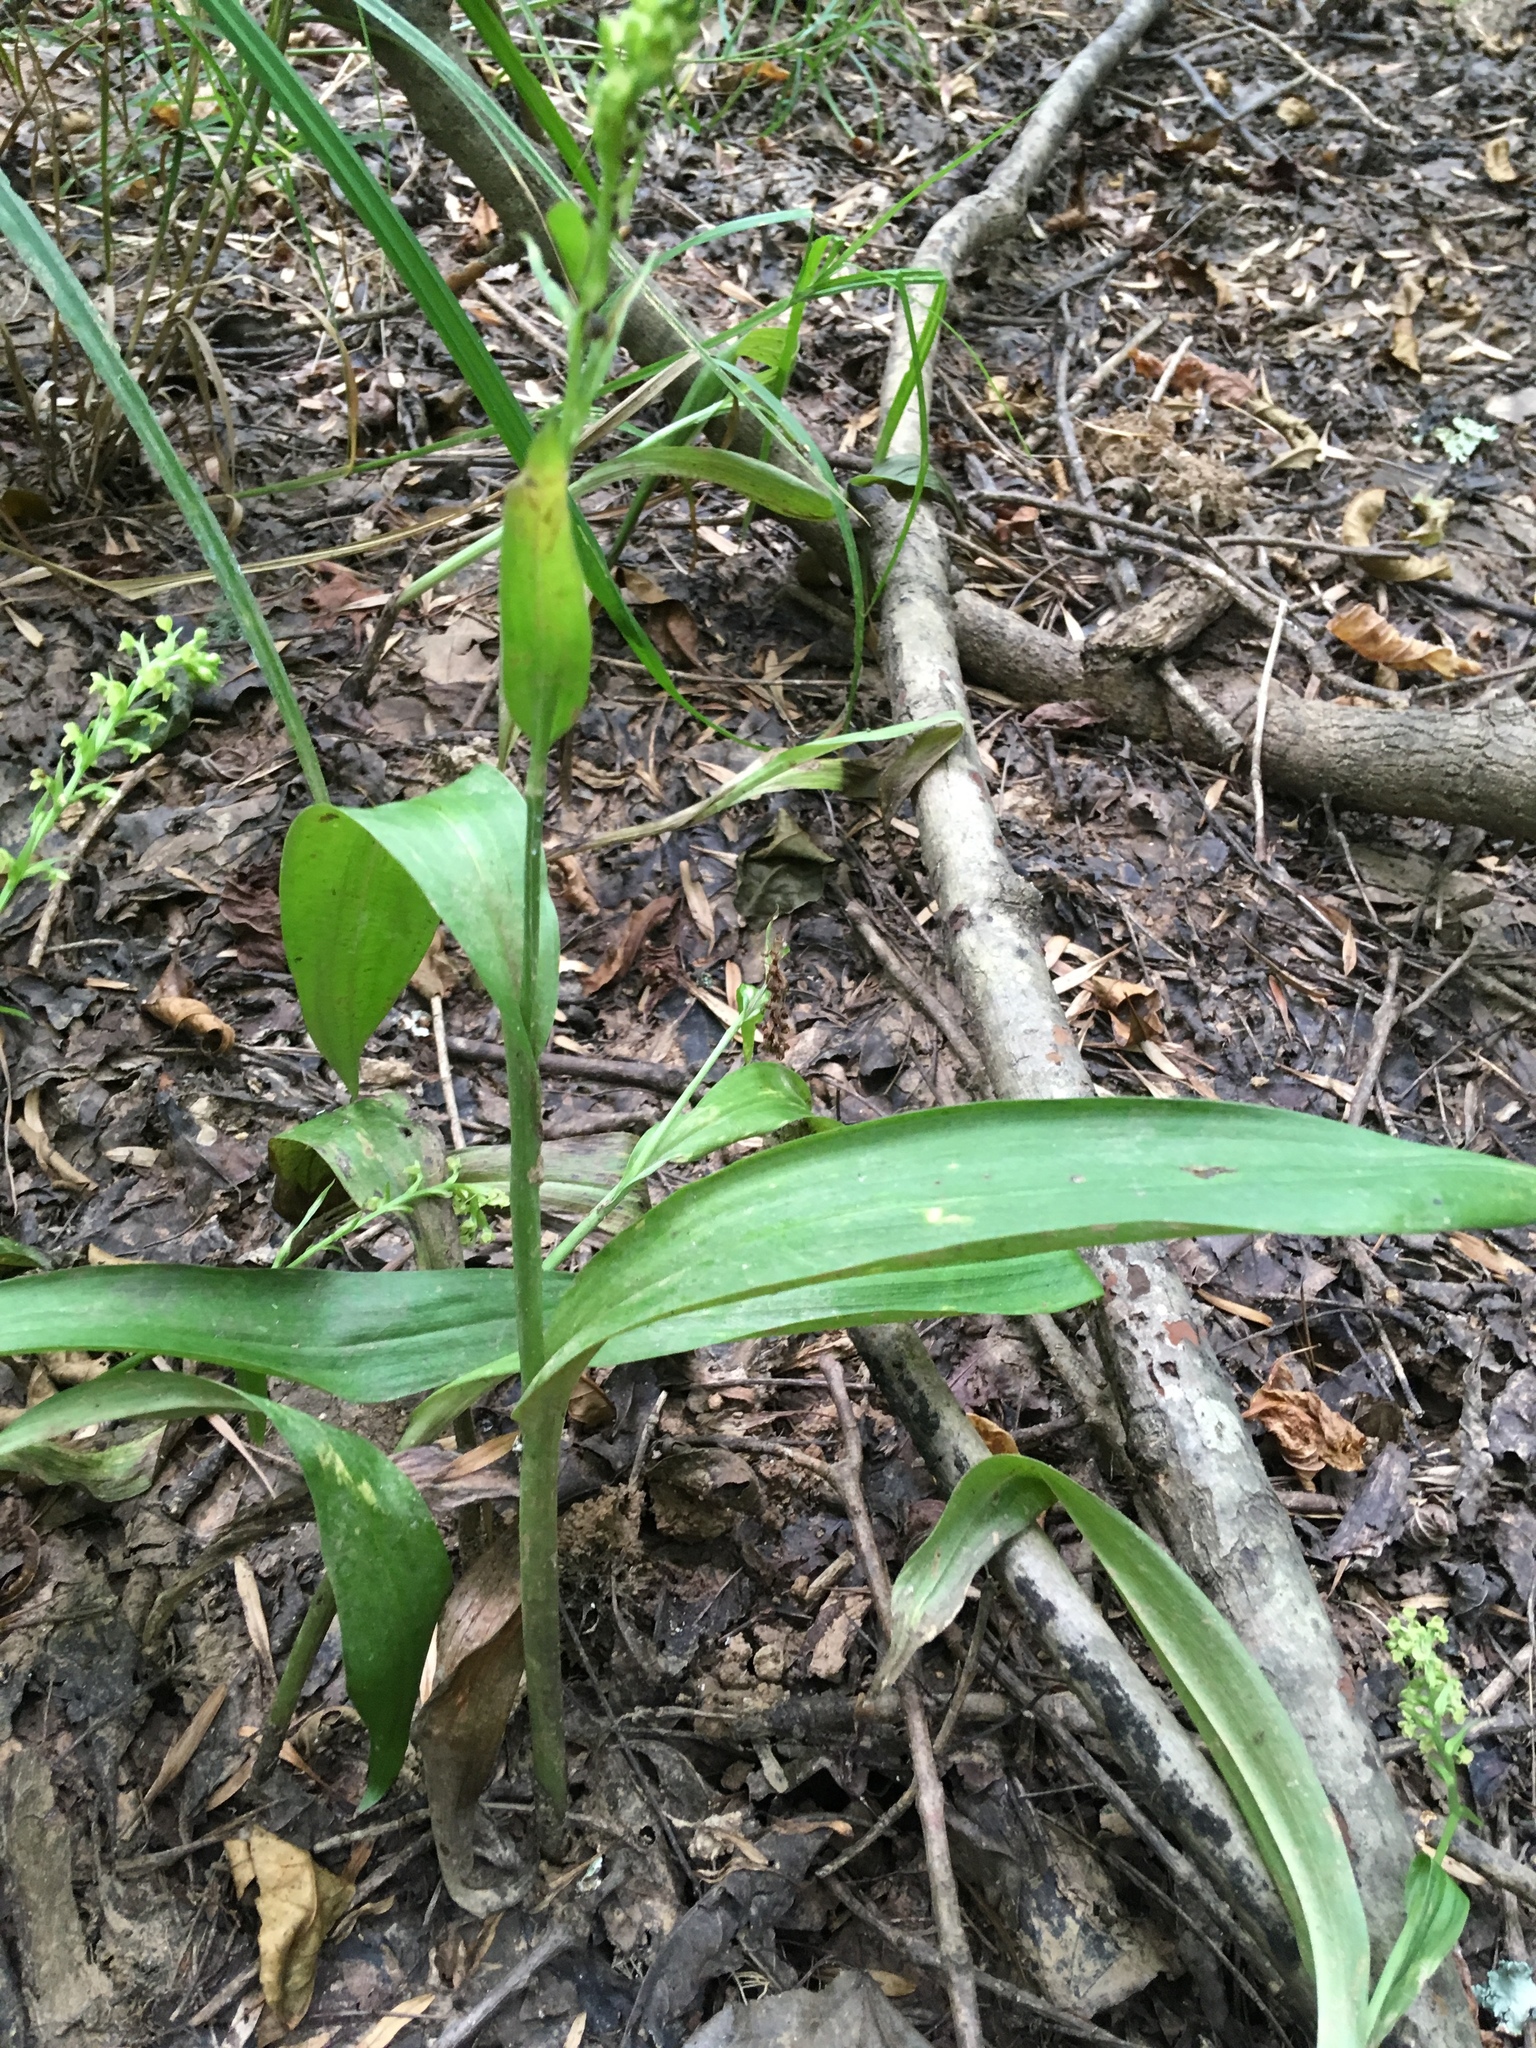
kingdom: Plantae
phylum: Tracheophyta
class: Liliopsida
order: Asparagales
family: Orchidaceae
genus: Platanthera
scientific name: Platanthera flava
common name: Gypsy-spikes
